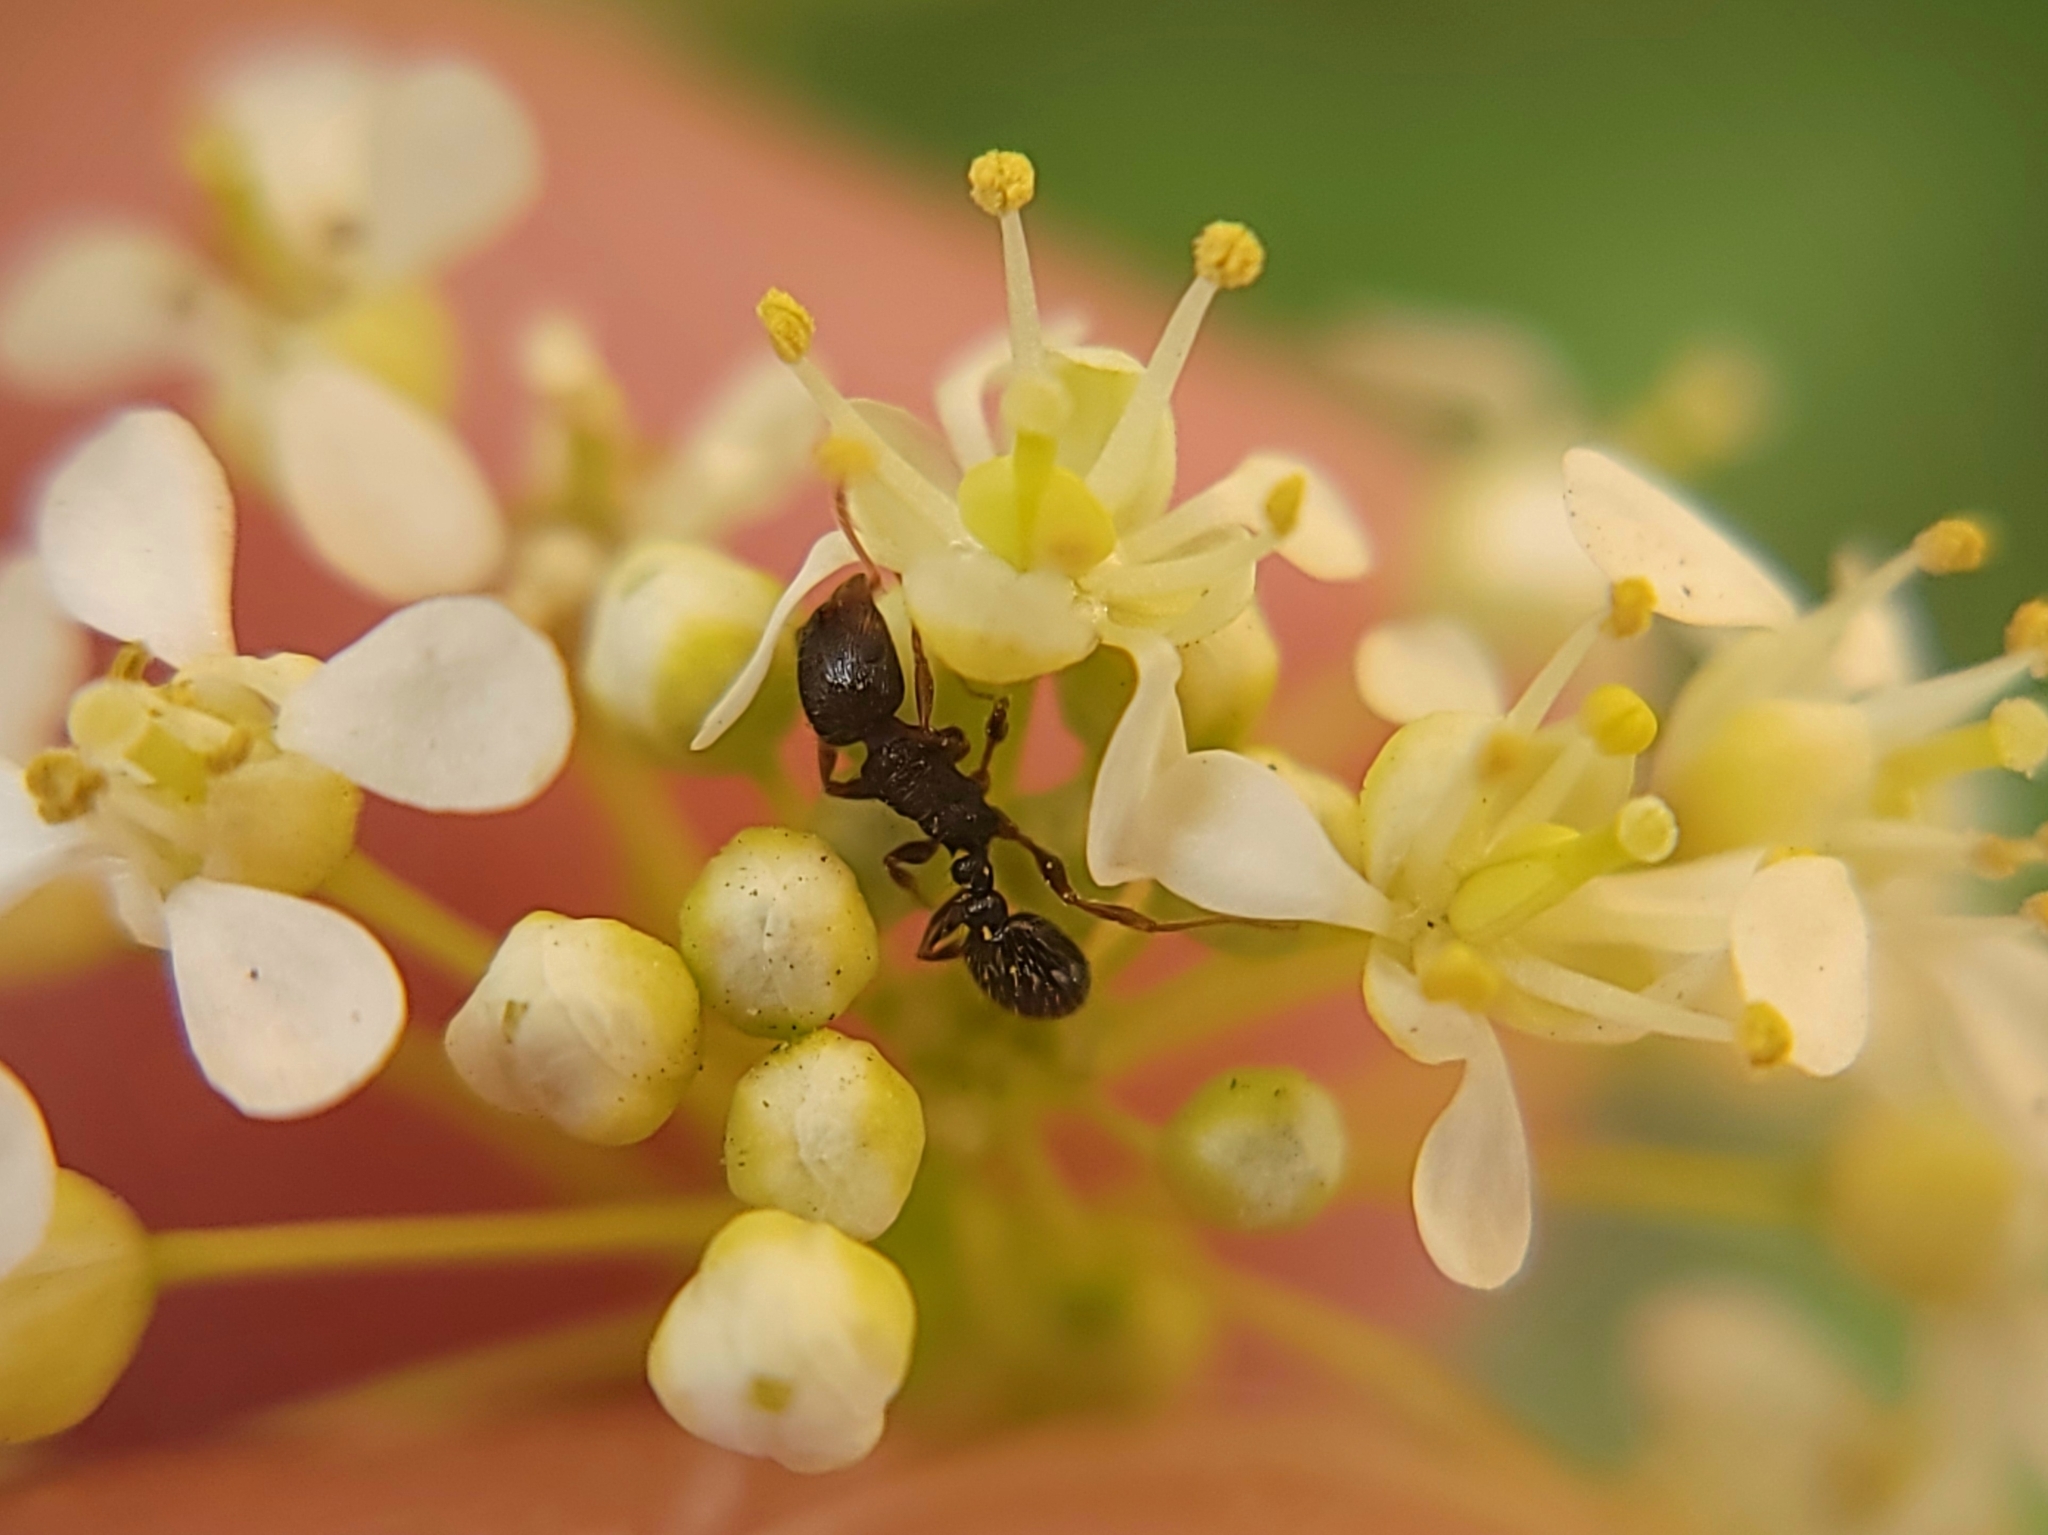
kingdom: Animalia
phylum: Arthropoda
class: Insecta
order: Hymenoptera
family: Formicidae
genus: Tetramorium
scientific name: Tetramorium immigrans
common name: Pavement ant
